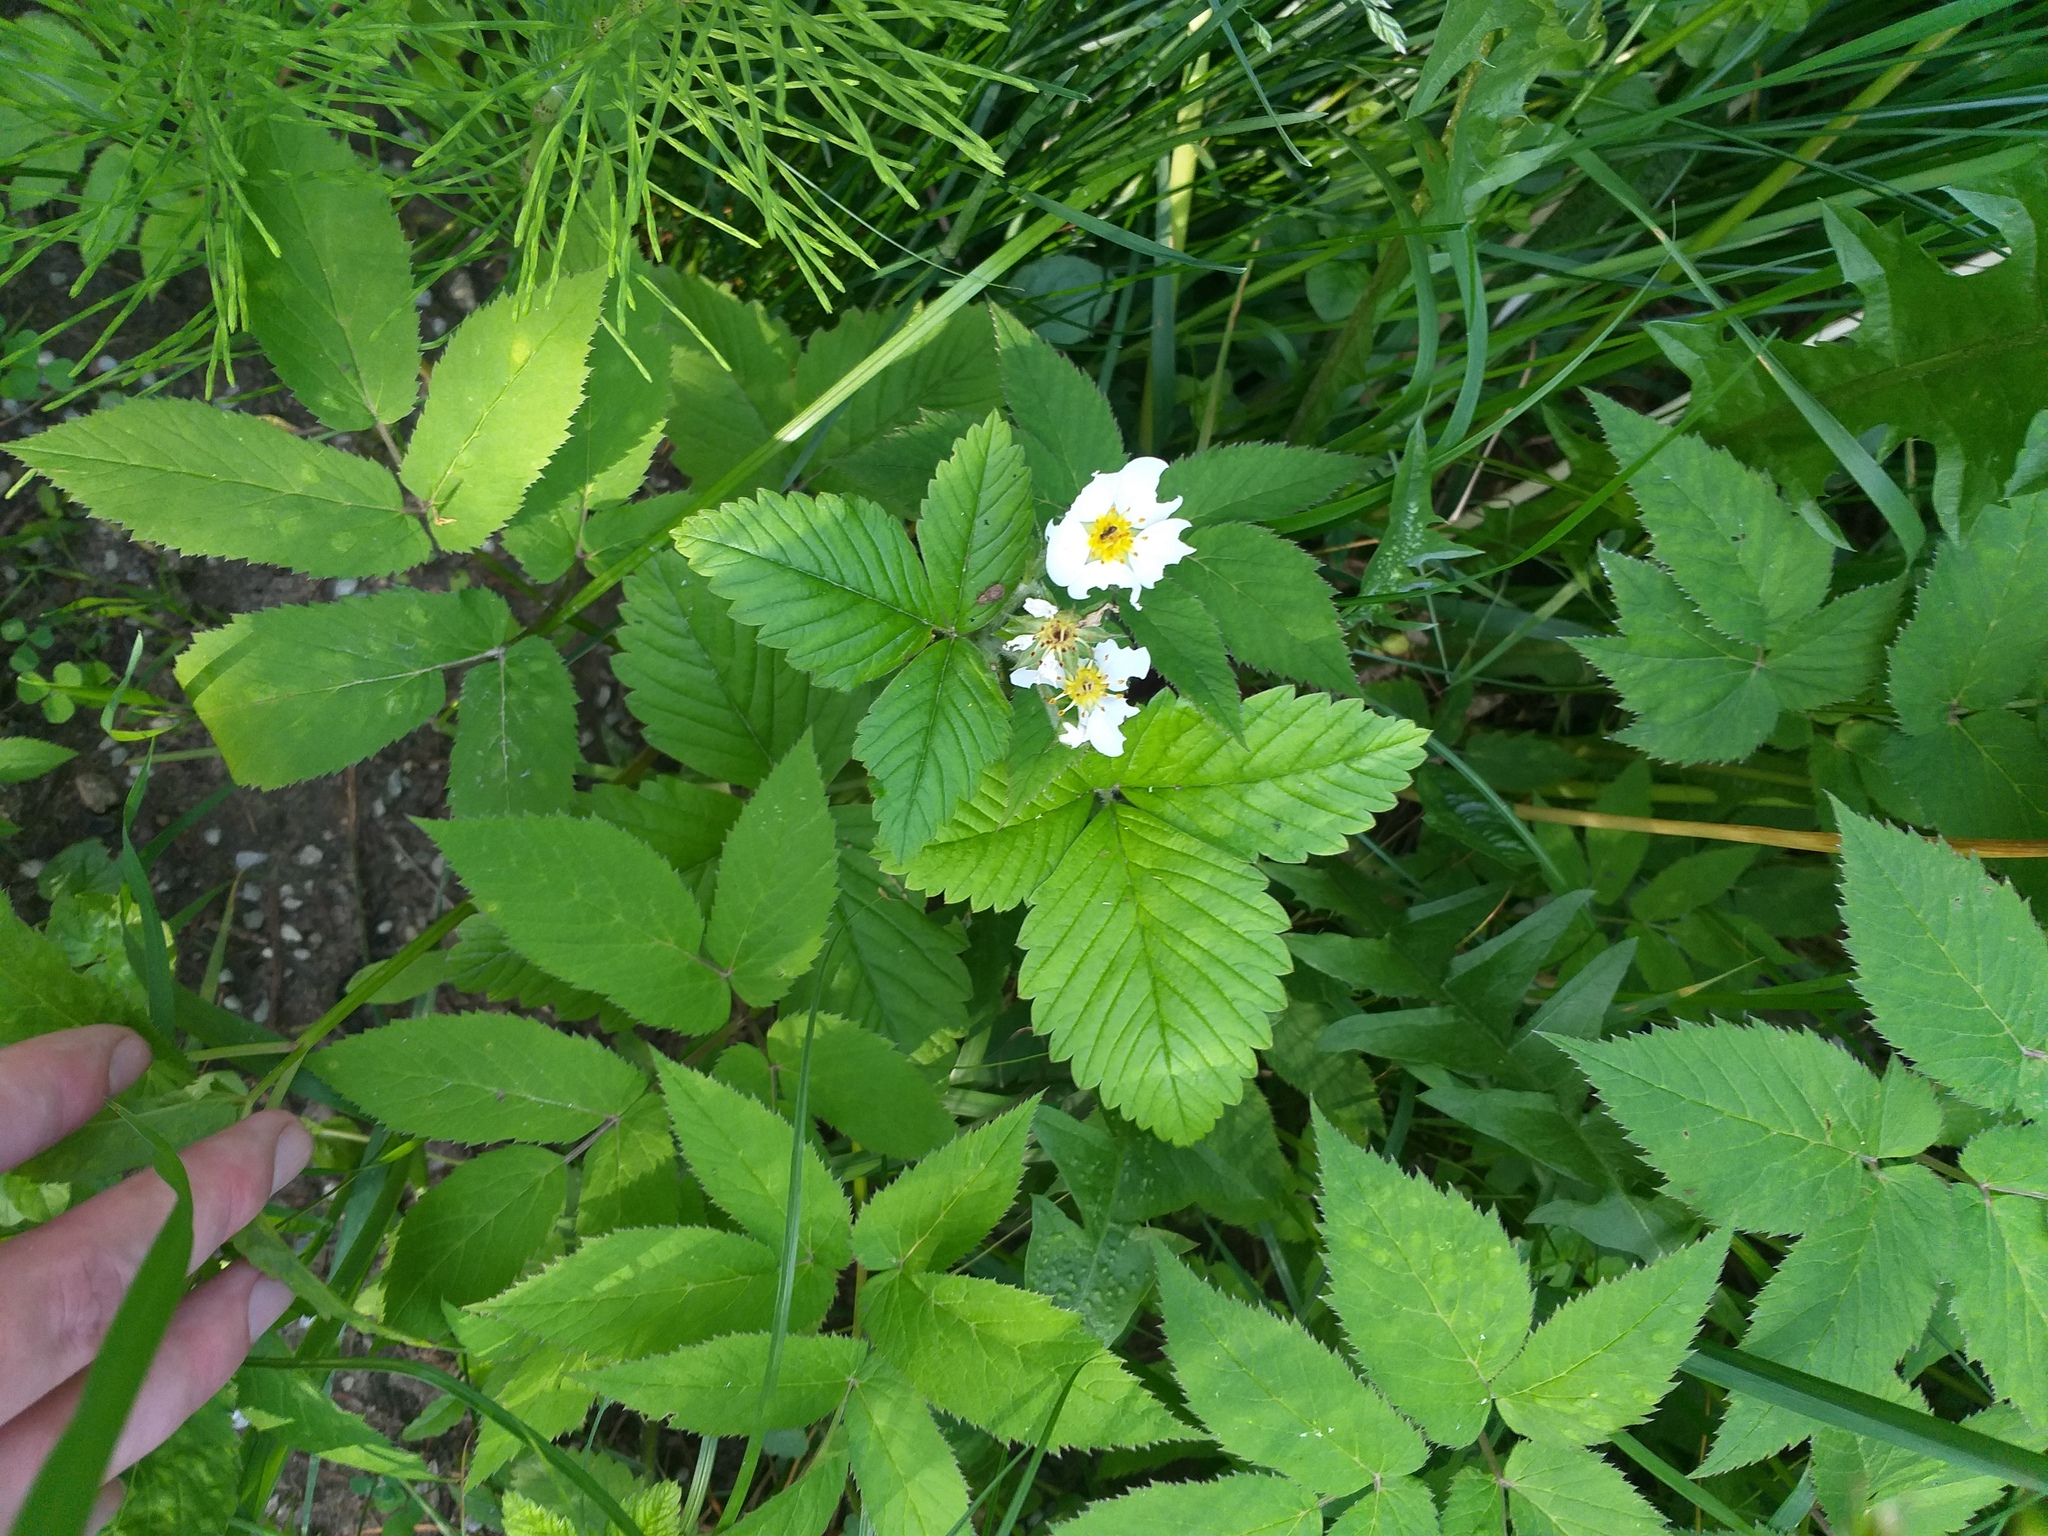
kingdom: Plantae
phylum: Tracheophyta
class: Magnoliopsida
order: Rosales
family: Rosaceae
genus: Fragaria
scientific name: Fragaria moschata
